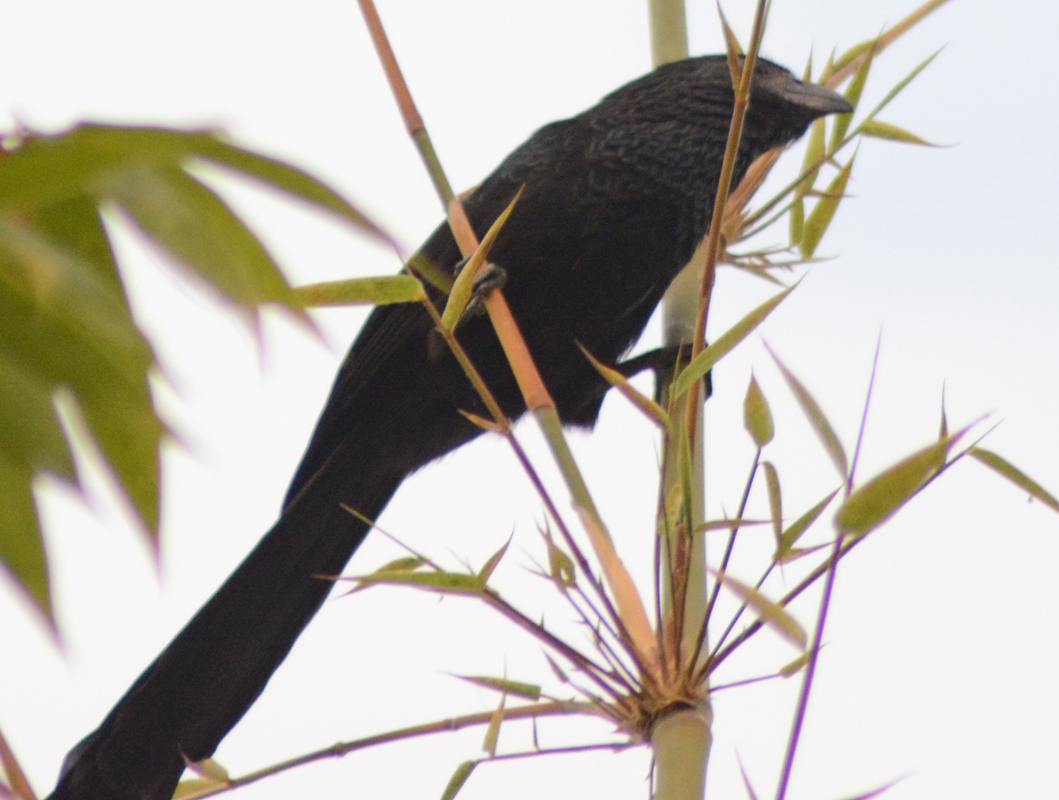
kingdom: Animalia
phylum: Chordata
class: Aves
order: Cuculiformes
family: Cuculidae
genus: Crotophaga
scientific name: Crotophaga sulcirostris
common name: Groove-billed ani
